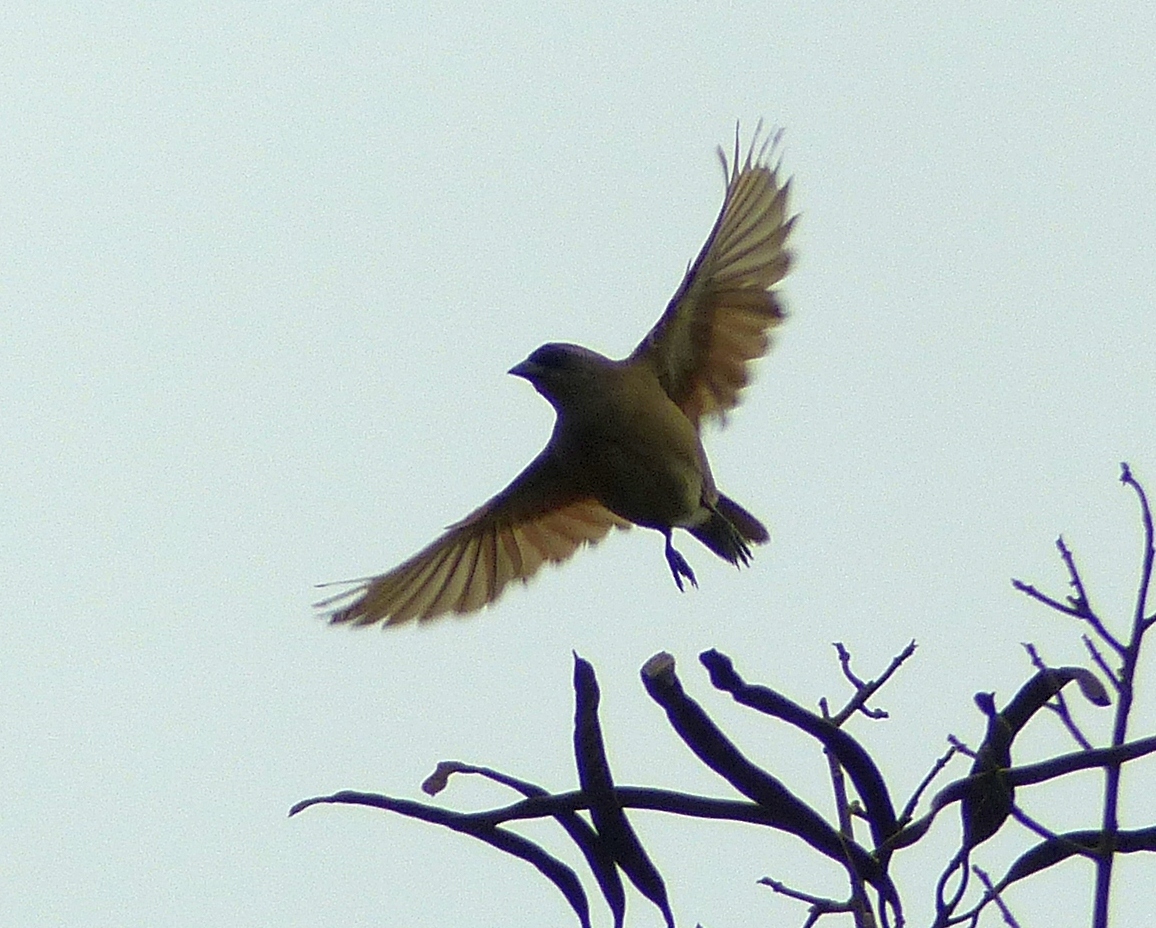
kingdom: Animalia
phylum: Chordata
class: Aves
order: Passeriformes
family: Icteridae
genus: Agelaioides
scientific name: Agelaioides badius
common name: Baywing
